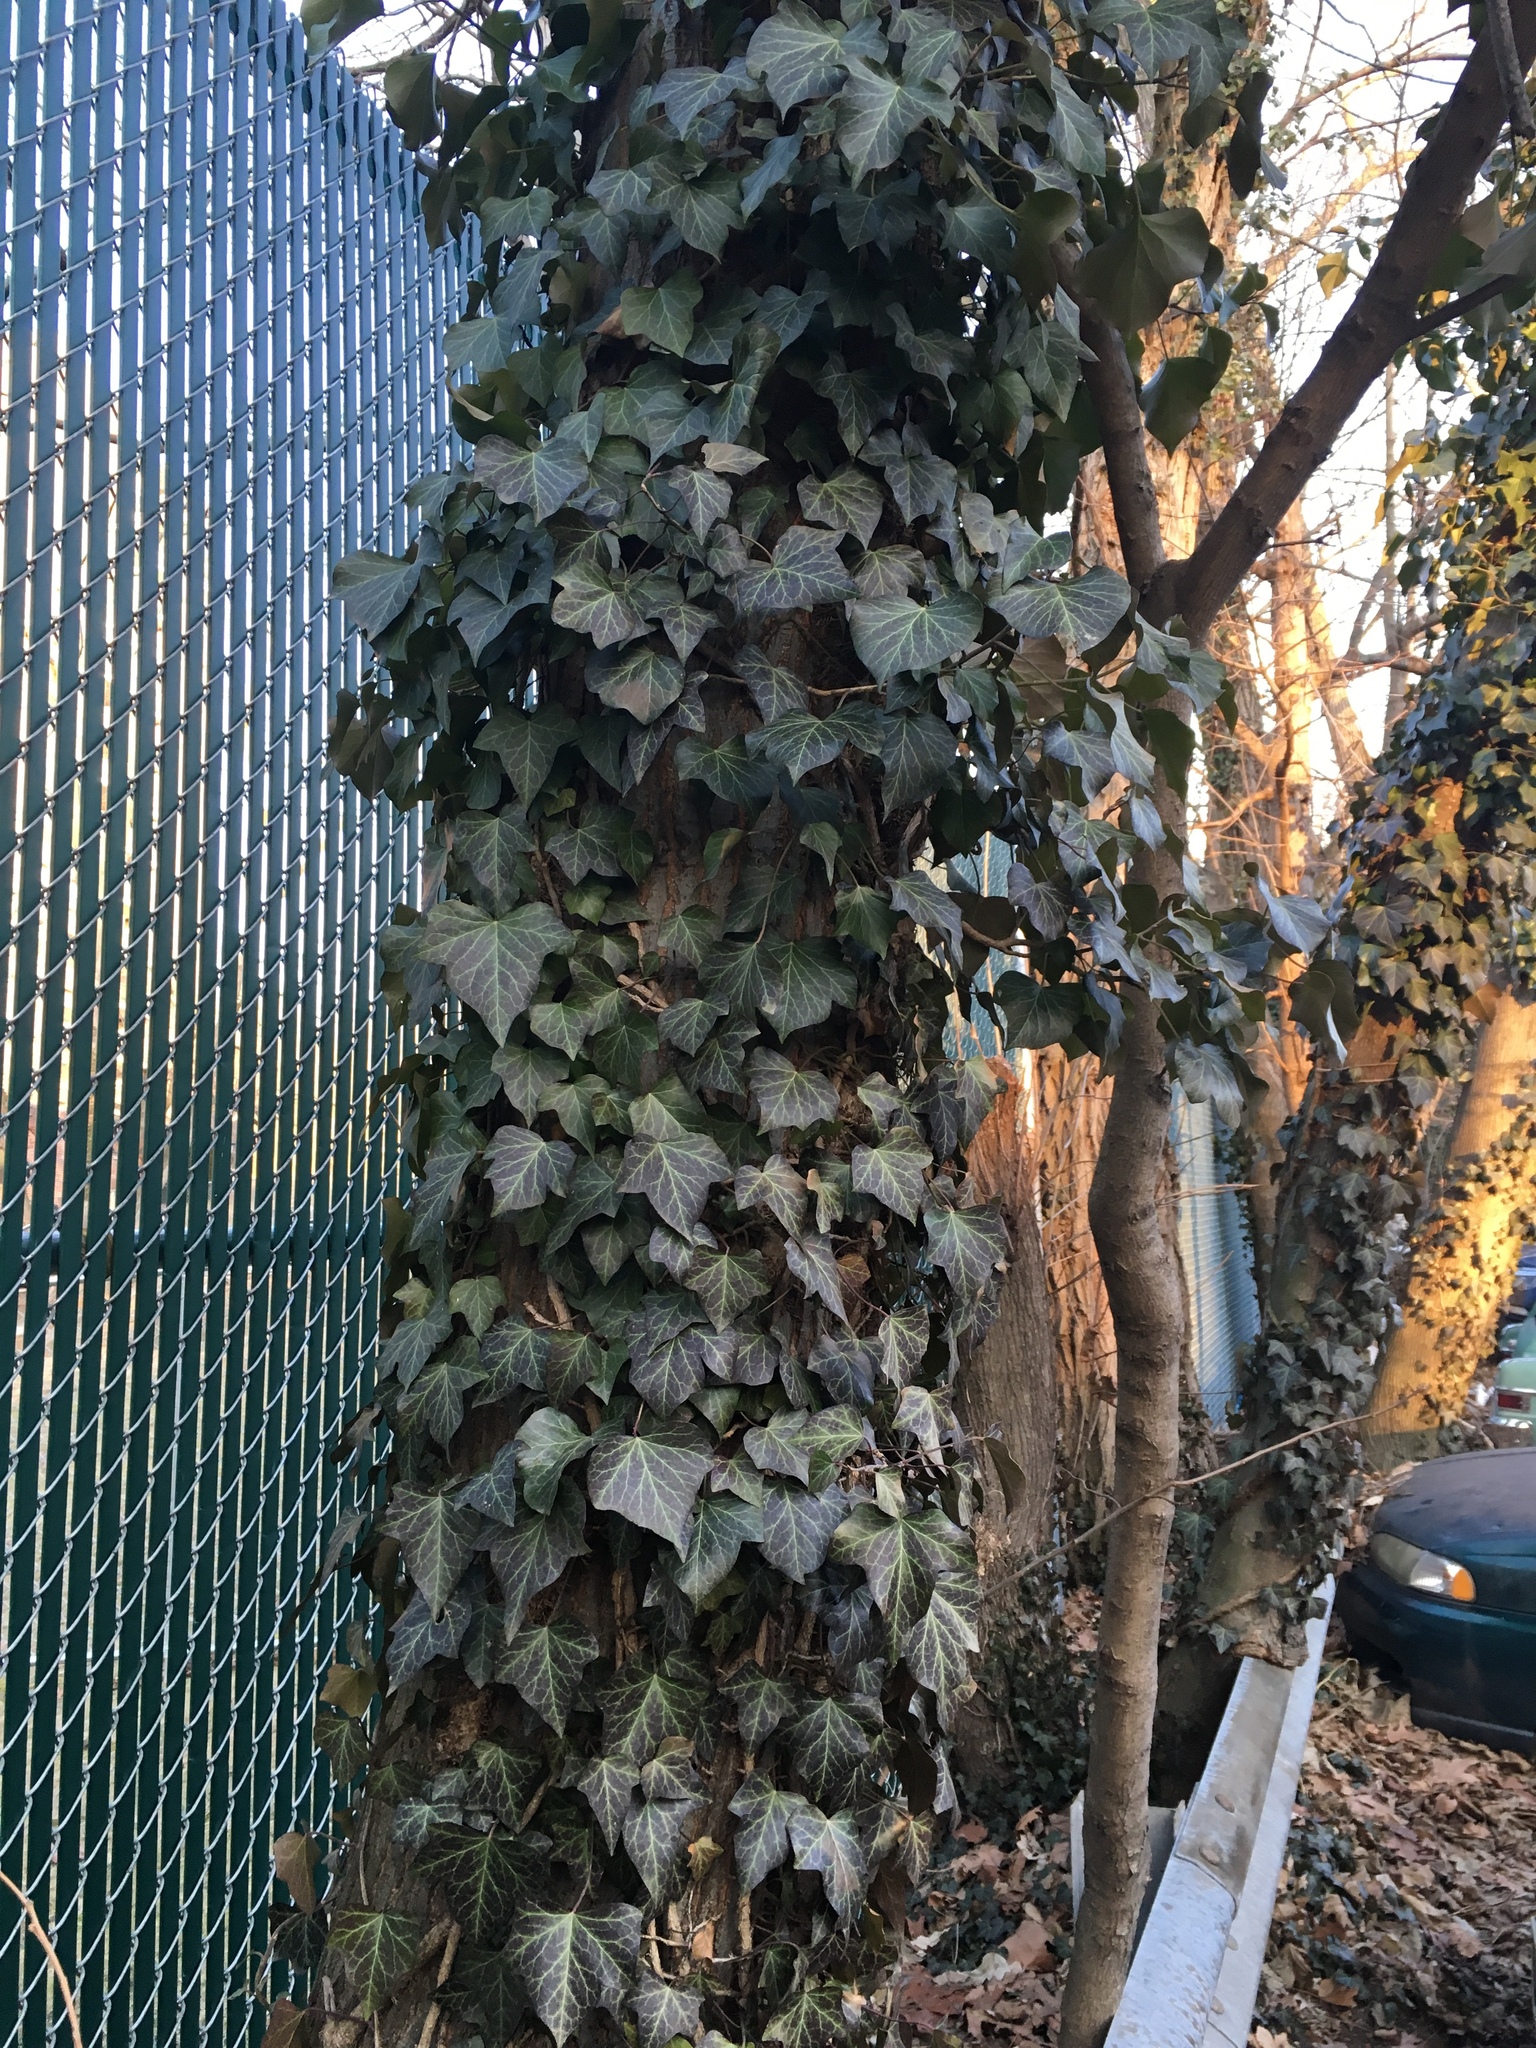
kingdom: Plantae
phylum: Tracheophyta
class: Magnoliopsida
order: Apiales
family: Araliaceae
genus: Hedera
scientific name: Hedera helix
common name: Ivy
